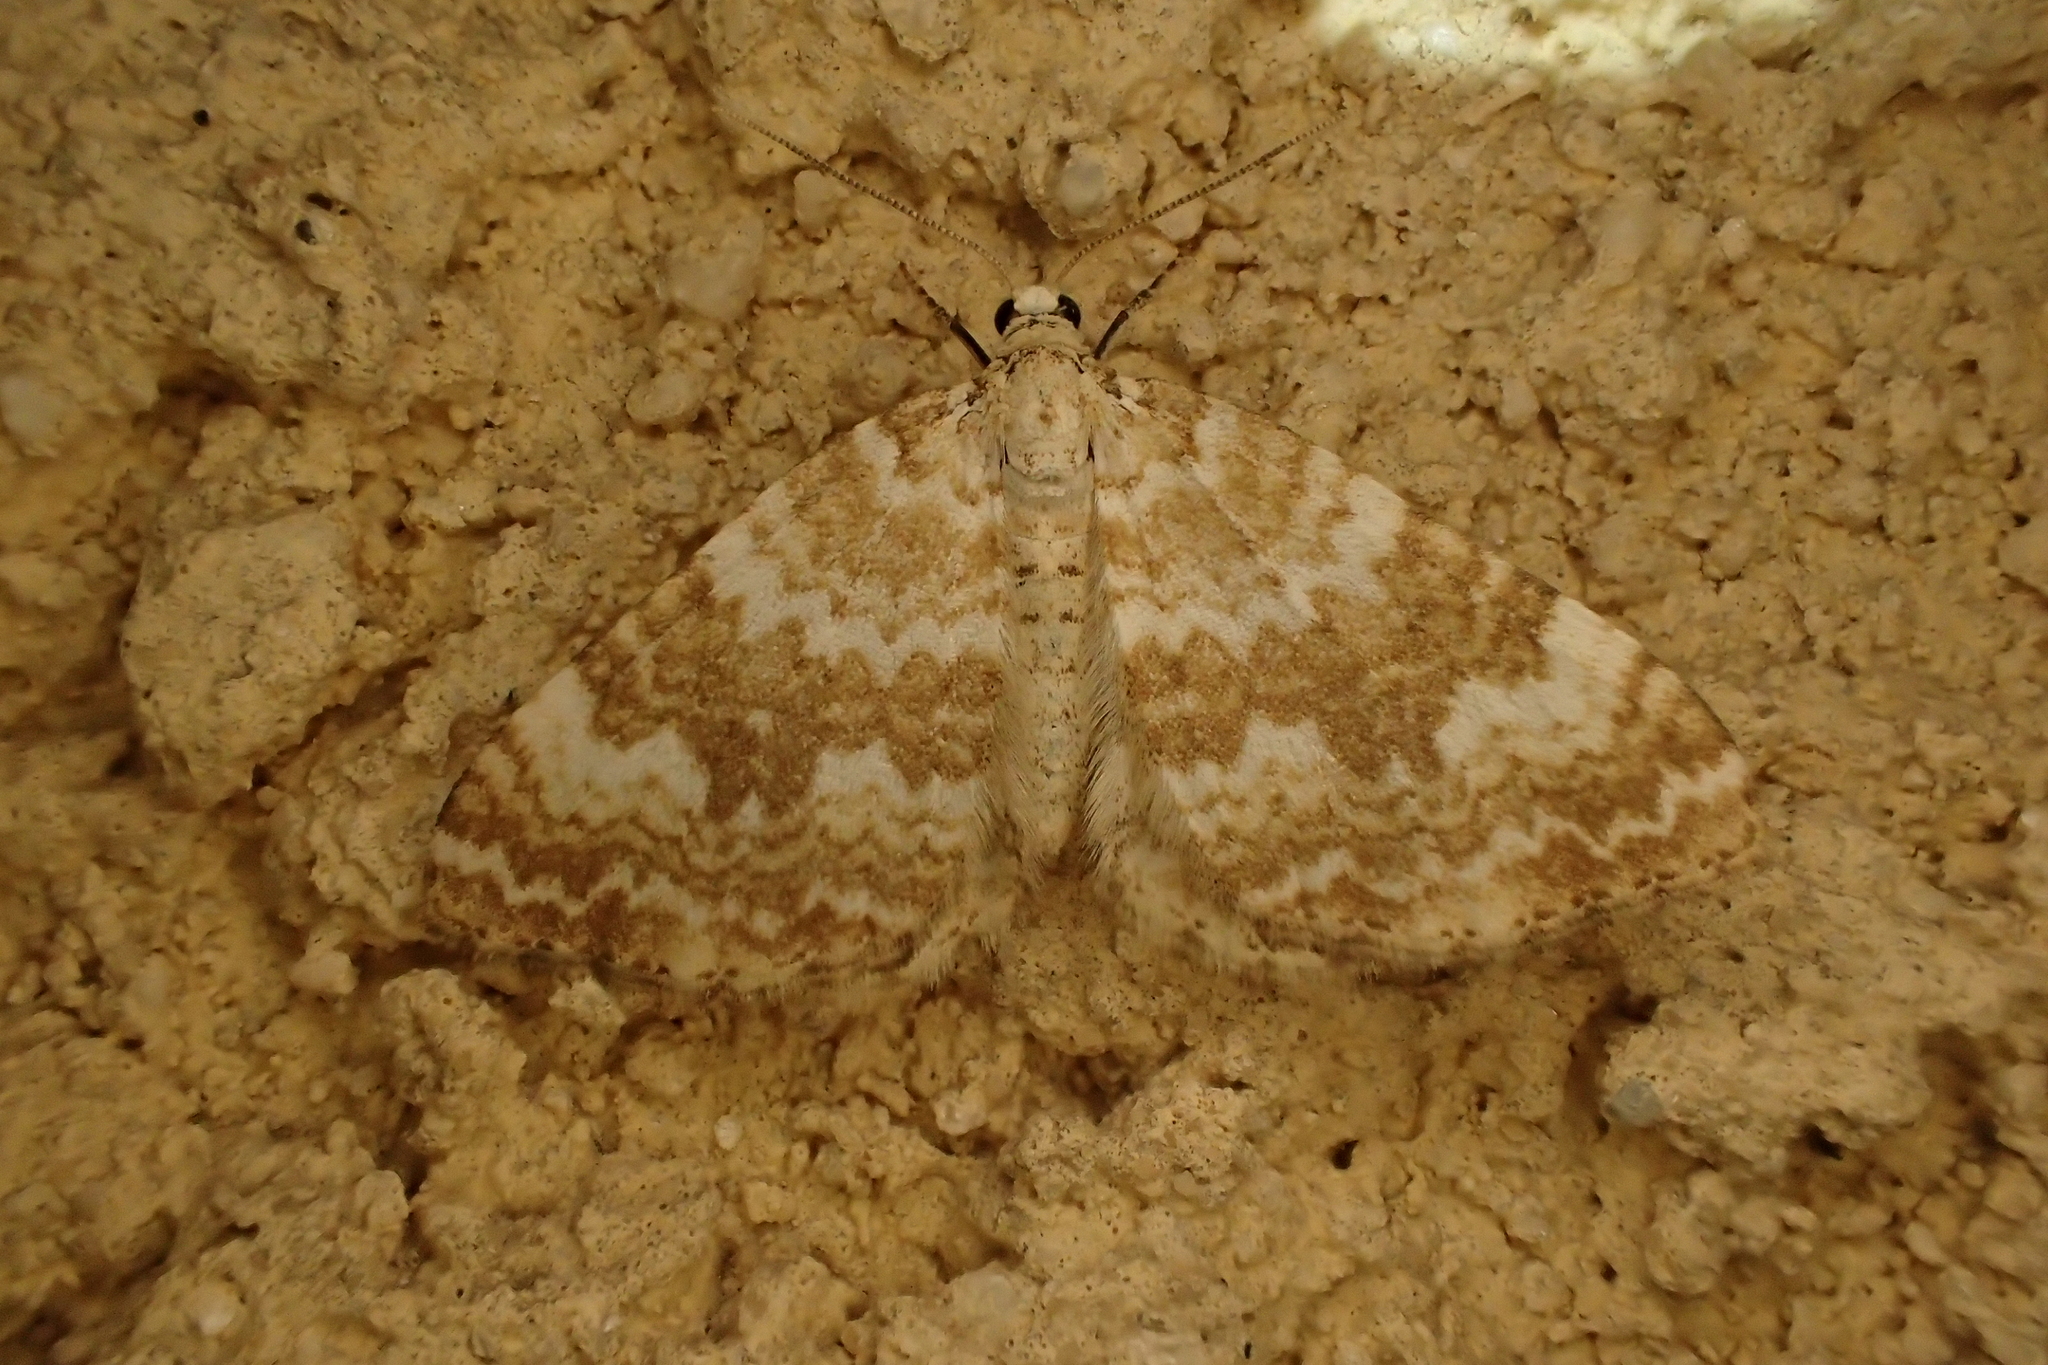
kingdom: Animalia
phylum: Arthropoda
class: Insecta
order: Lepidoptera
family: Geometridae
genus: Perizoma
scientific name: Perizoma flavofasciata
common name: Sandy carpet
